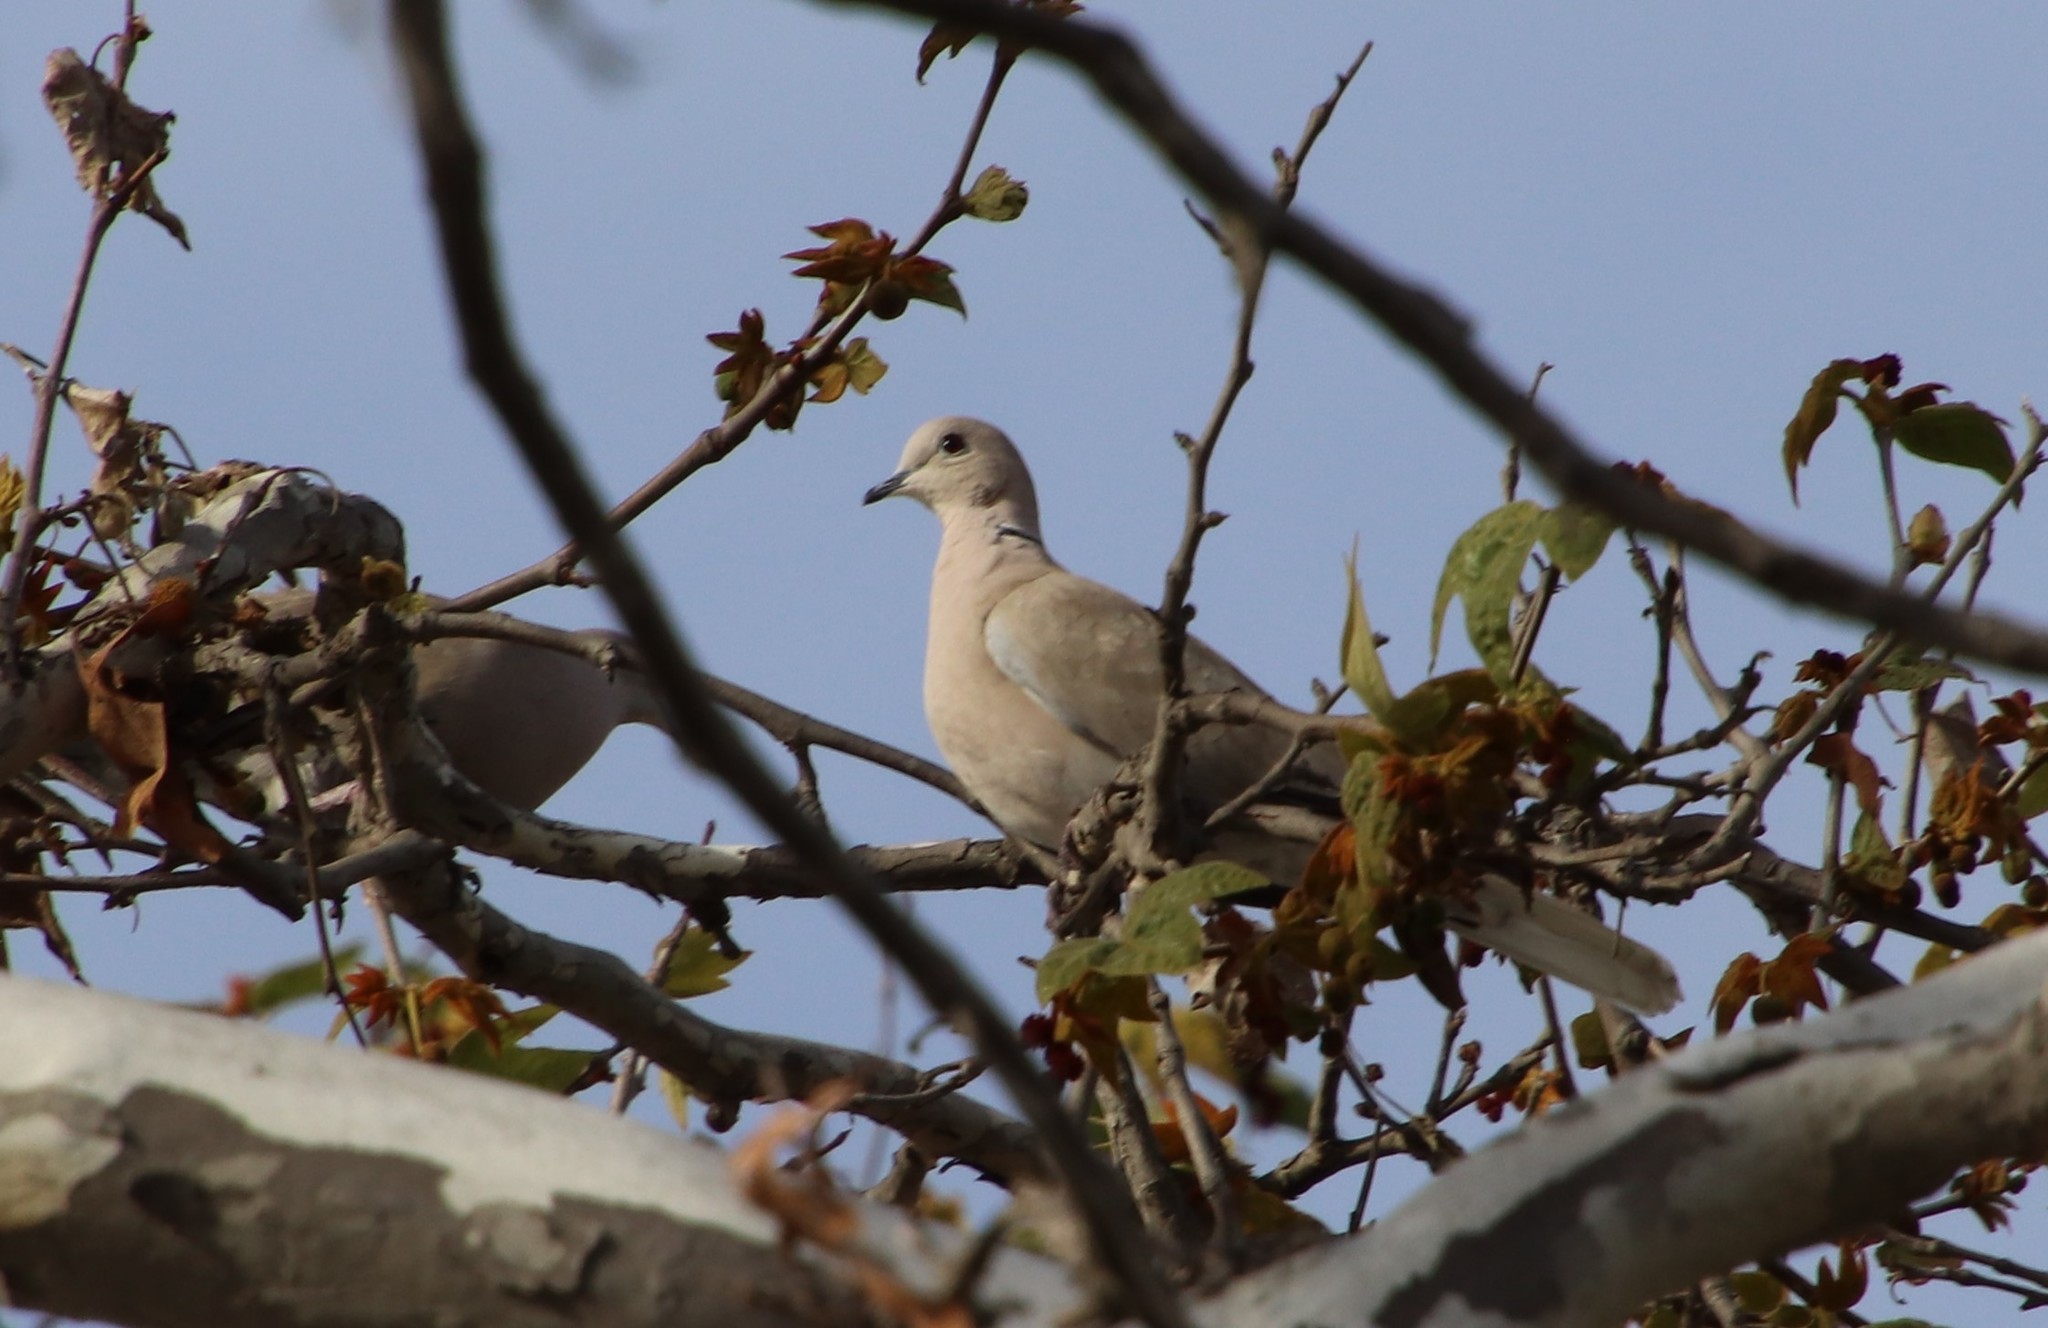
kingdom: Animalia
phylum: Chordata
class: Aves
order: Columbiformes
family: Columbidae
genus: Streptopelia
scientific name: Streptopelia decaocto
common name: Eurasian collared dove
